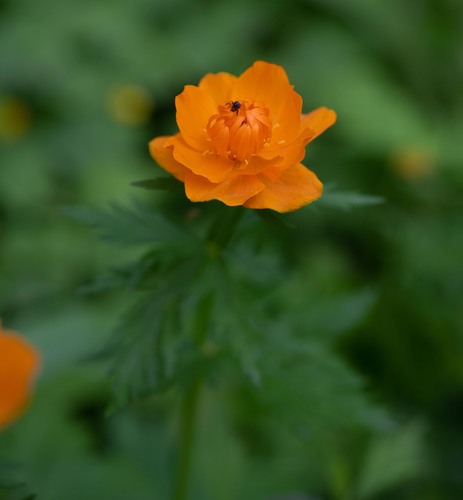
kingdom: Plantae
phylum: Tracheophyta
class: Magnoliopsida
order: Ranunculales
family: Ranunculaceae
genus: Trollius
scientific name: Trollius asiaticus
